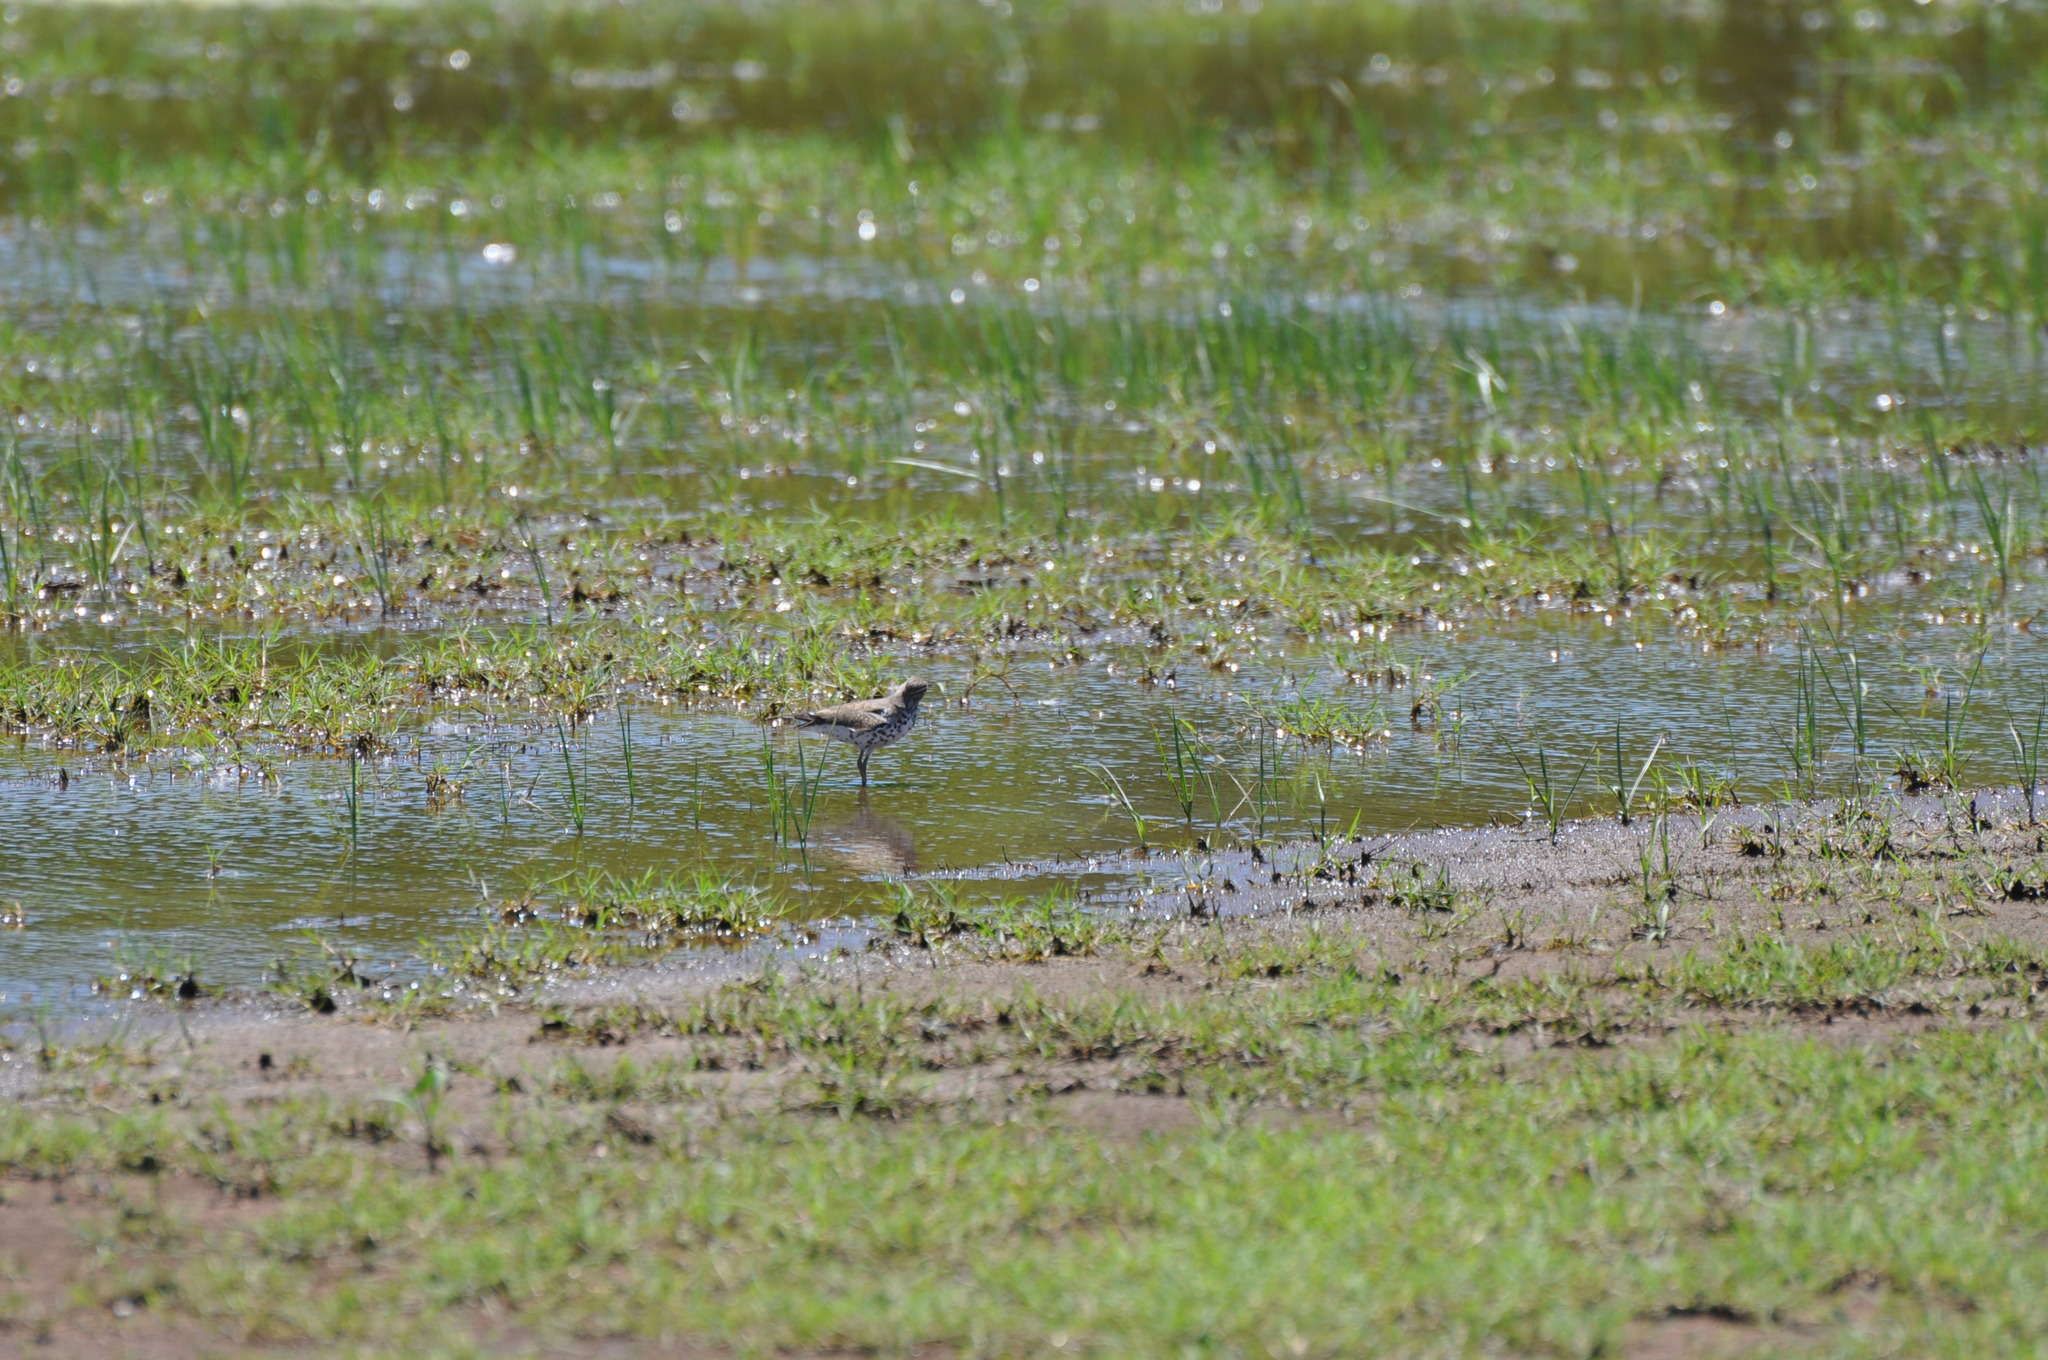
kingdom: Animalia
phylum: Chordata
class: Aves
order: Charadriiformes
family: Scolopacidae
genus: Actitis
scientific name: Actitis macularius
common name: Spotted sandpiper
